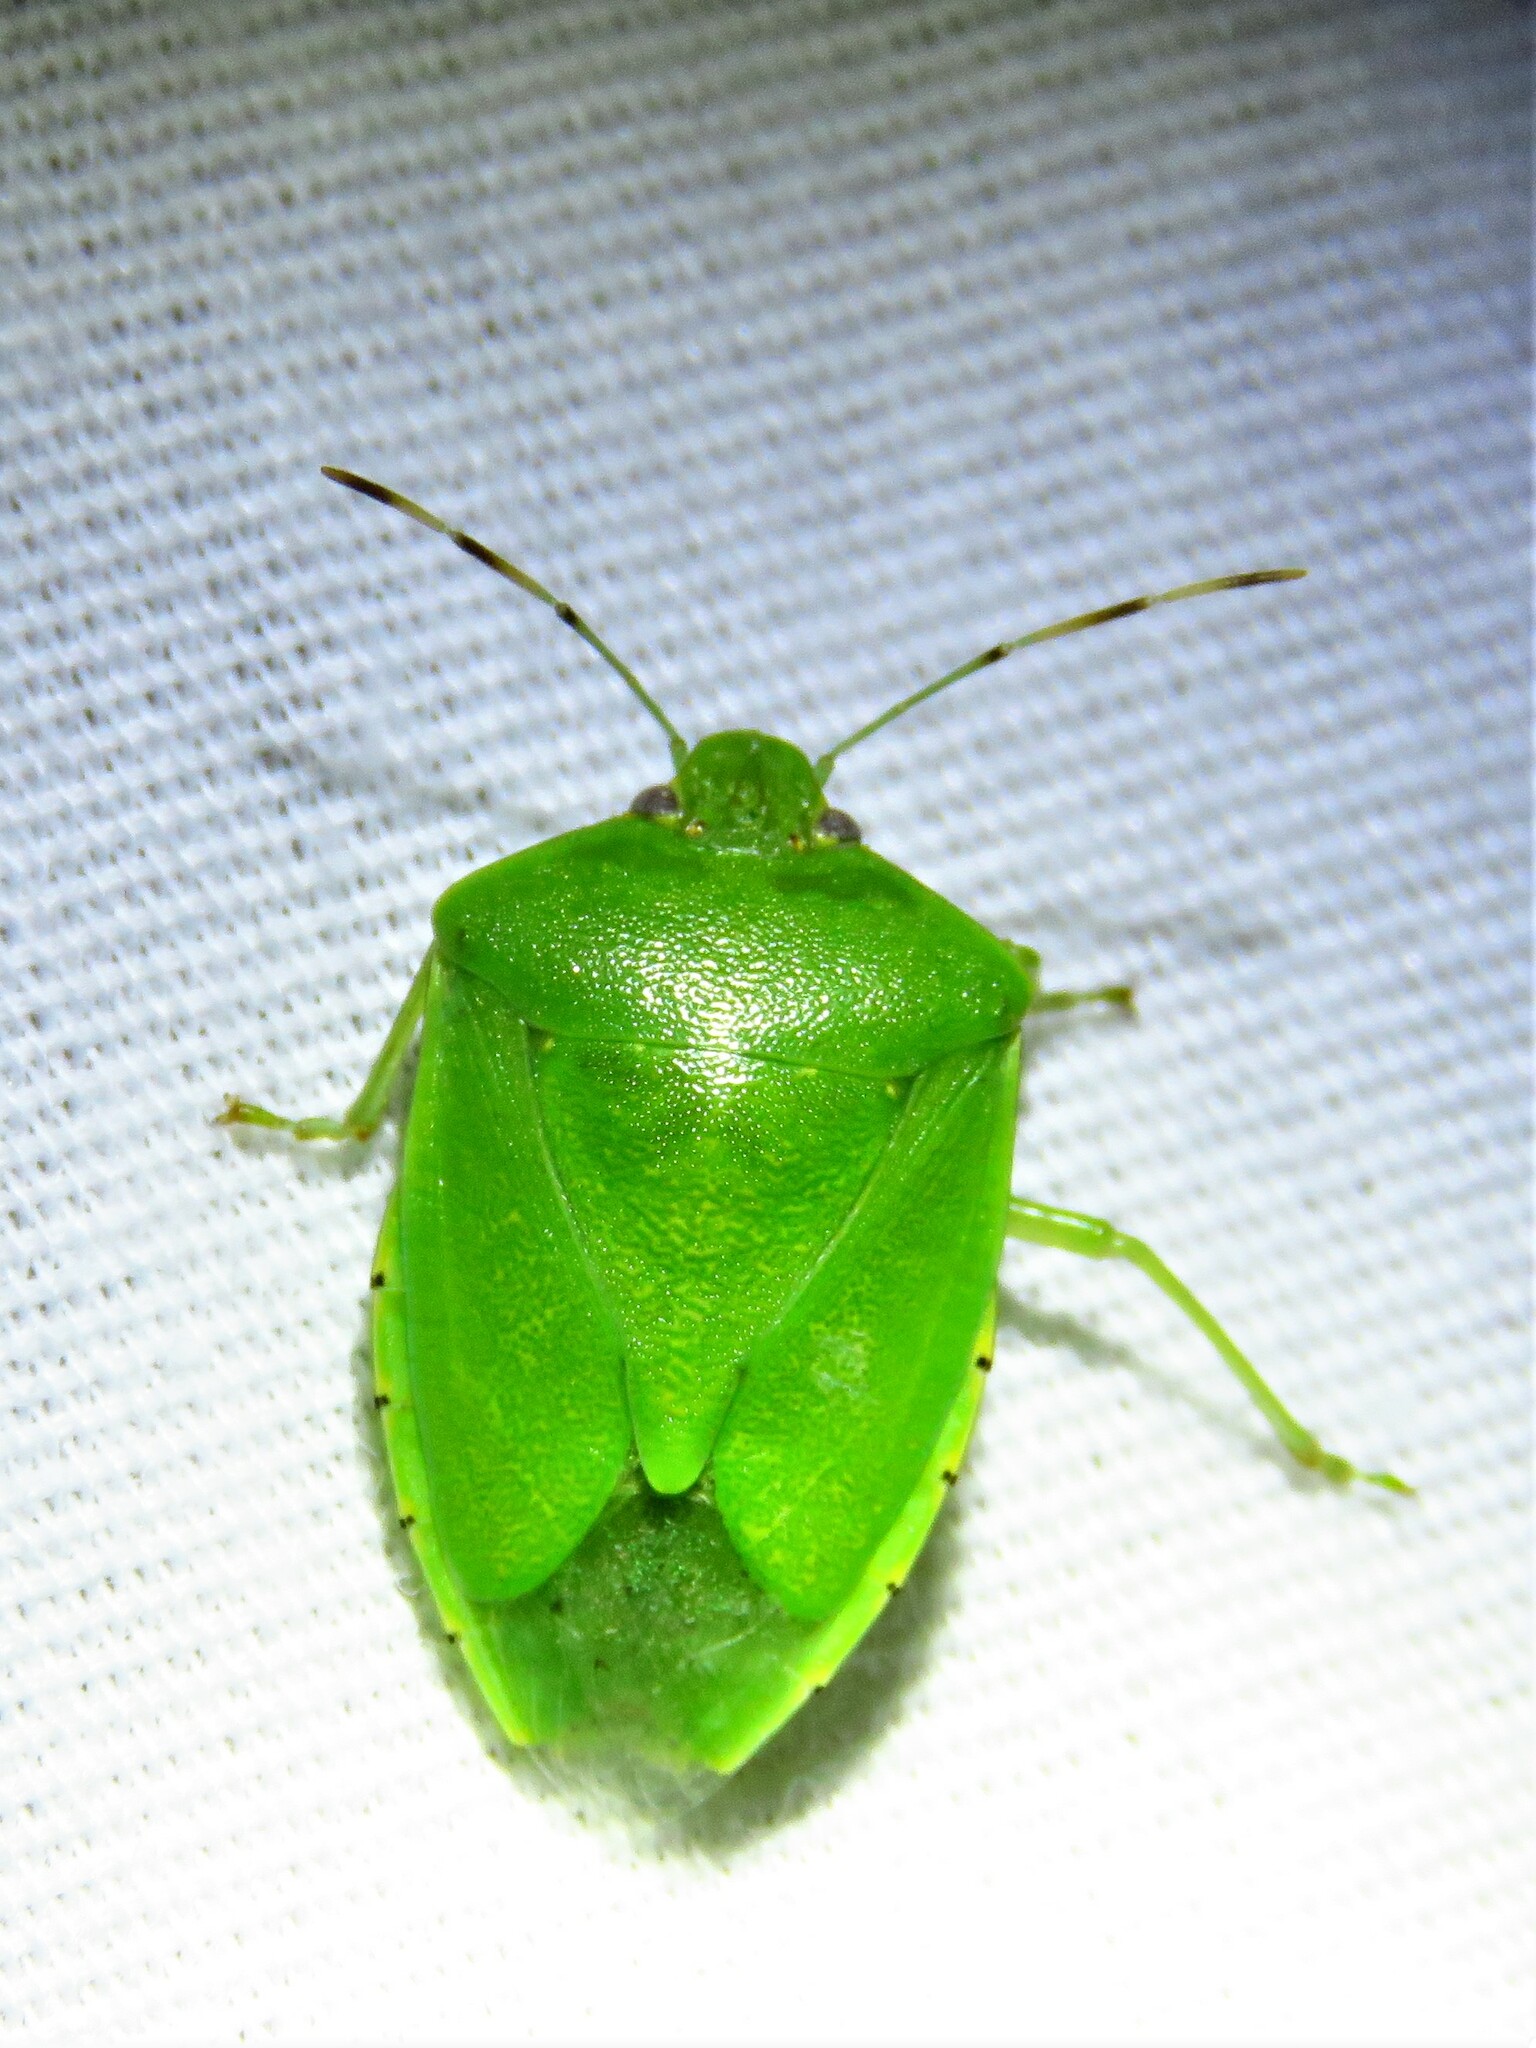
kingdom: Animalia
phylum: Arthropoda
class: Insecta
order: Hemiptera
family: Pentatomidae
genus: Chinavia
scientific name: Chinavia hilaris
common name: Green stink bug
